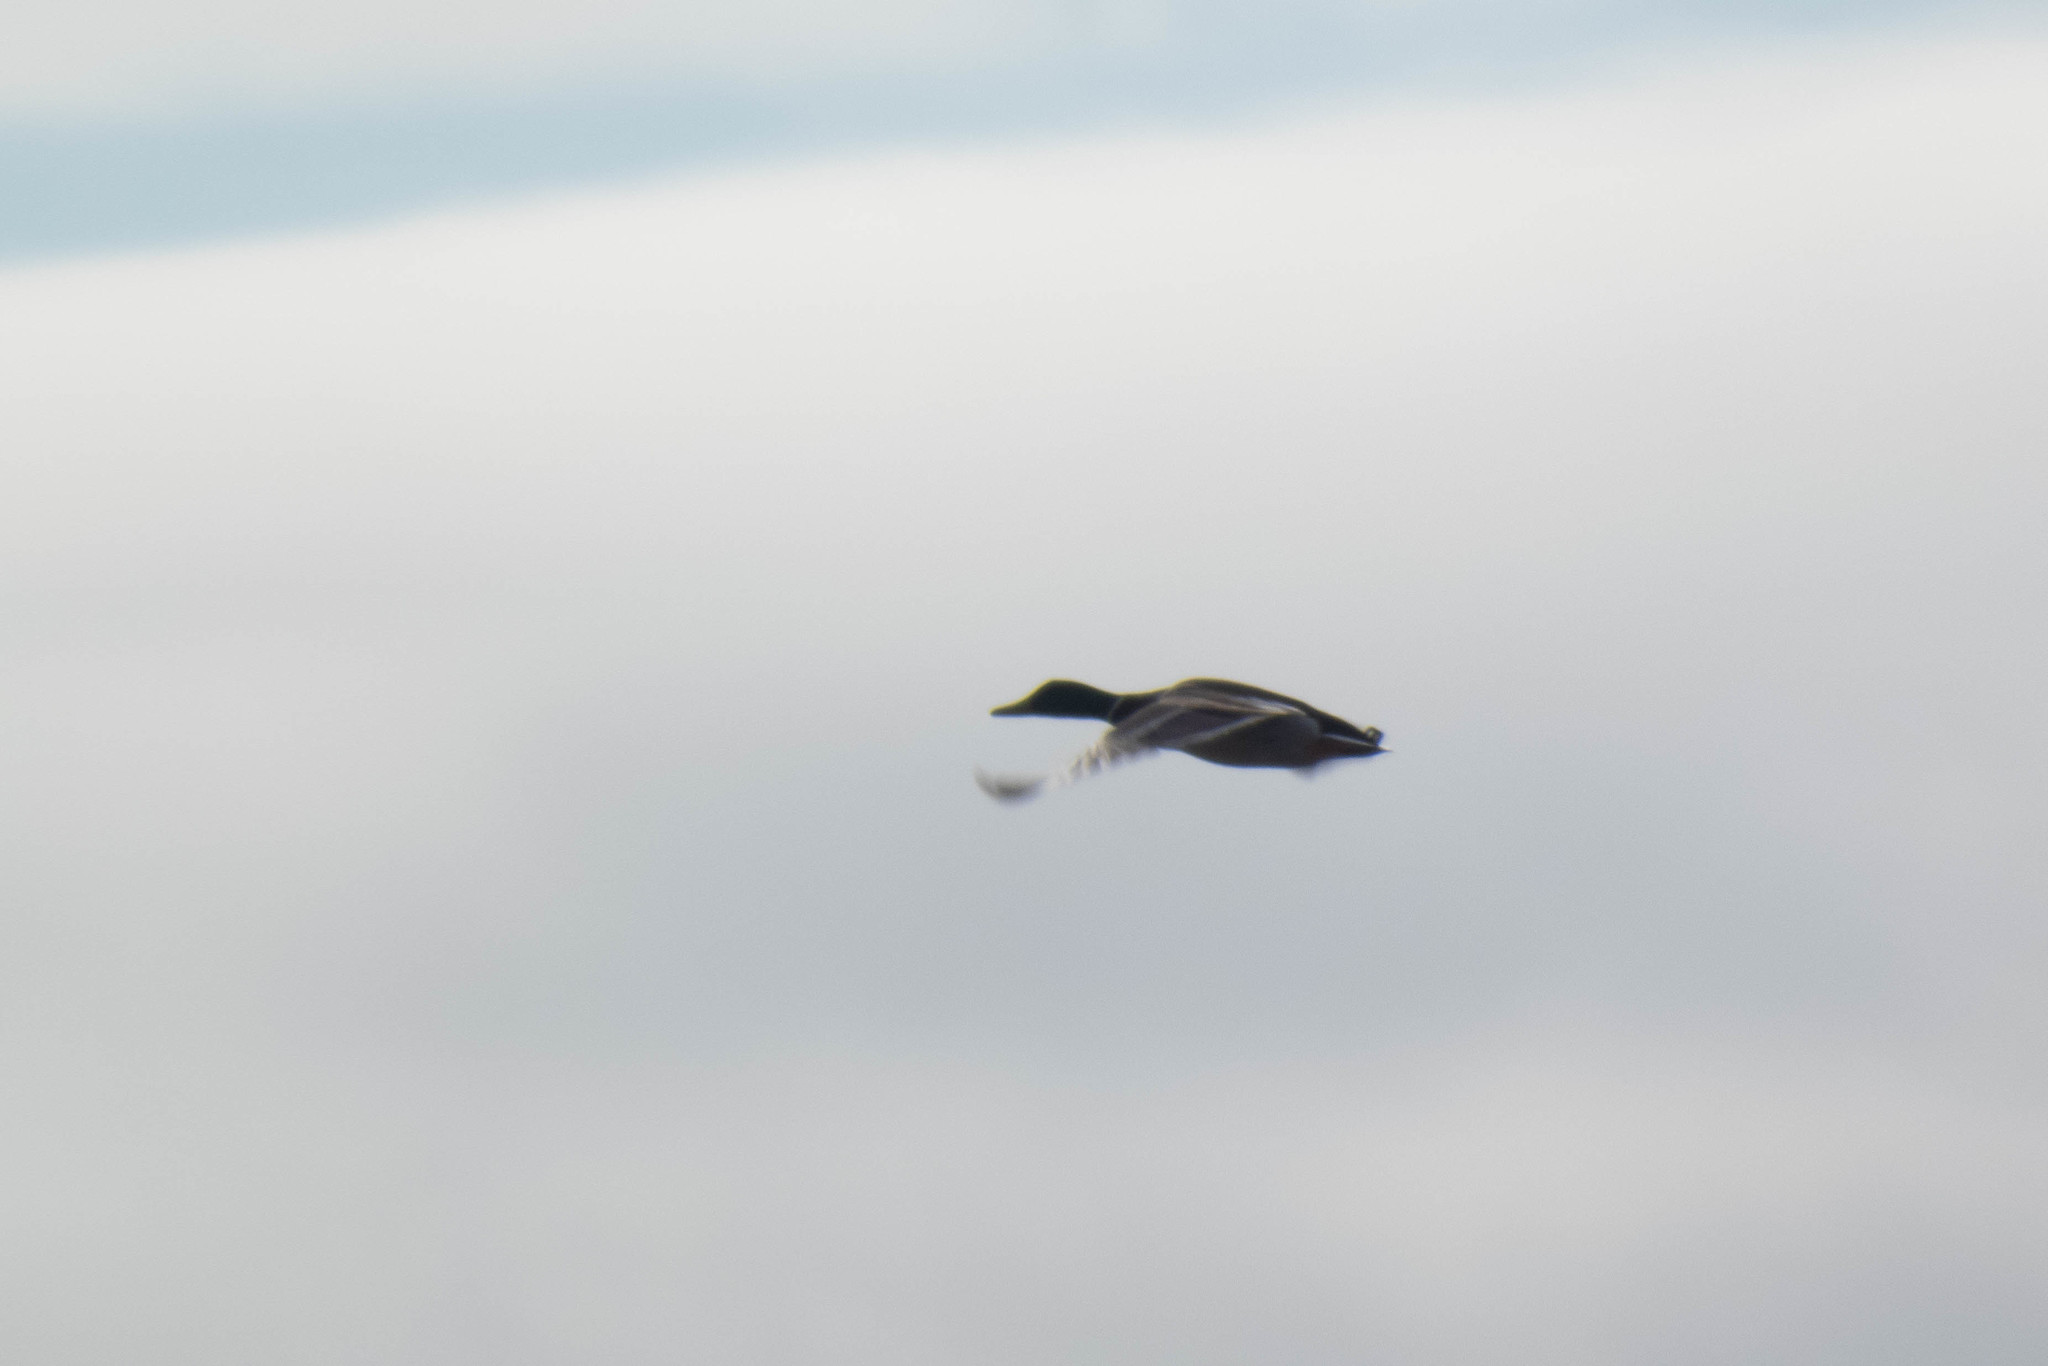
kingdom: Animalia
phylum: Chordata
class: Aves
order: Anseriformes
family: Anatidae
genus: Anas
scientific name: Anas platyrhynchos
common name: Mallard
